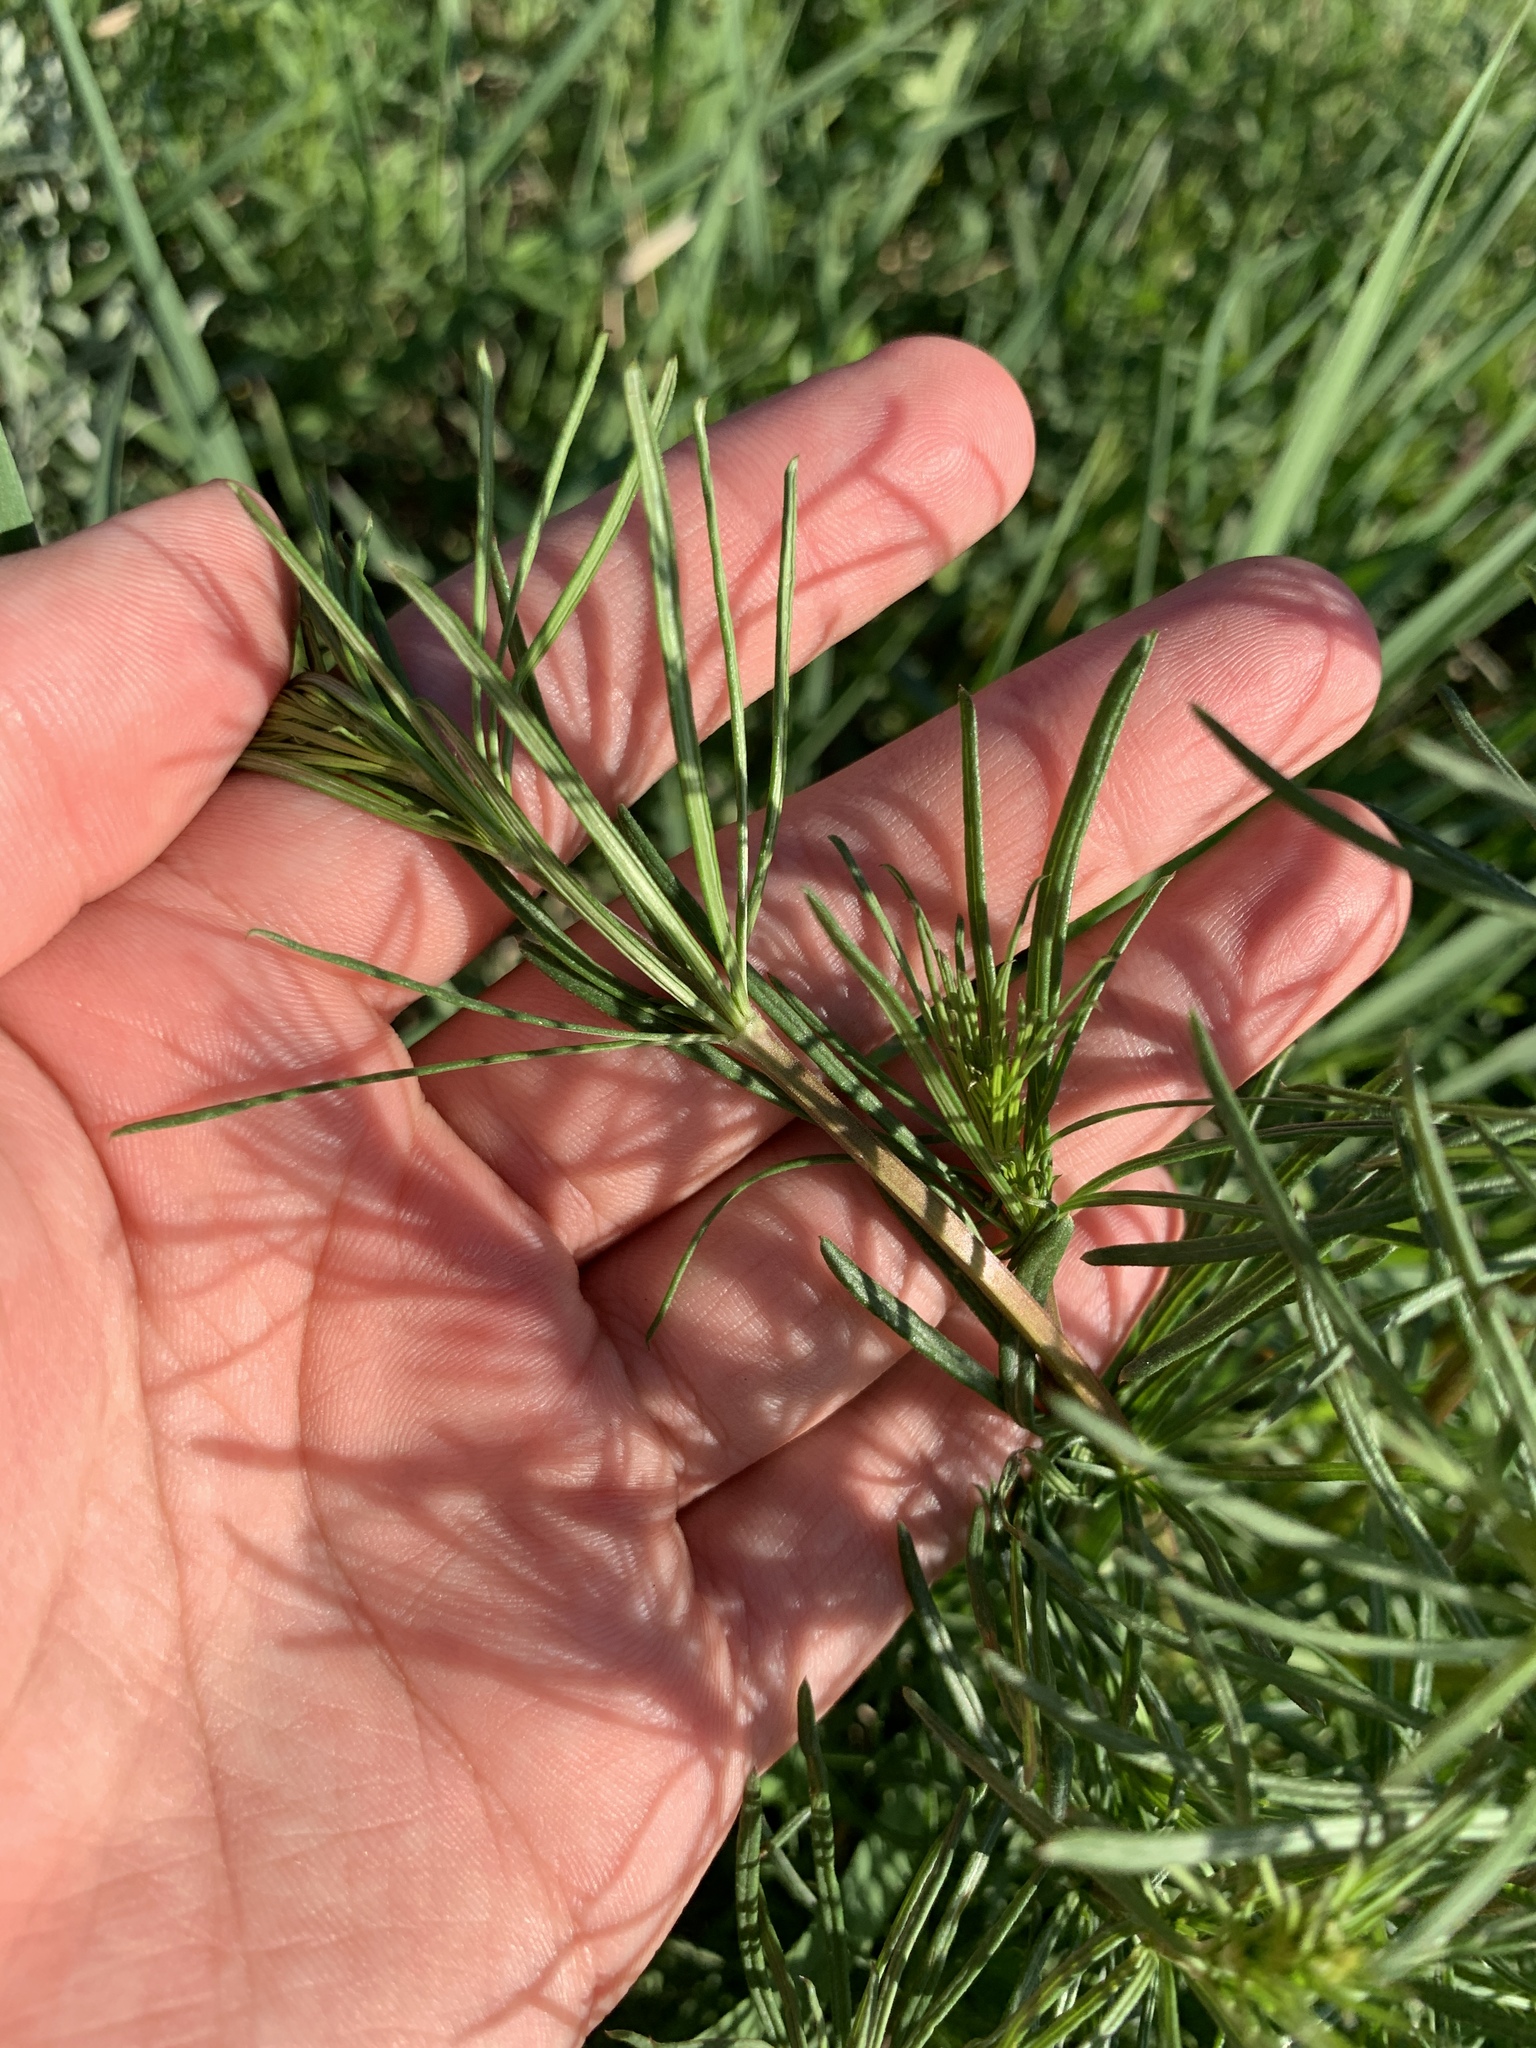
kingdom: Plantae
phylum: Tracheophyta
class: Magnoliopsida
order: Gentianales
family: Rubiaceae
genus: Galium
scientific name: Galium verum
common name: Lady's bedstraw
